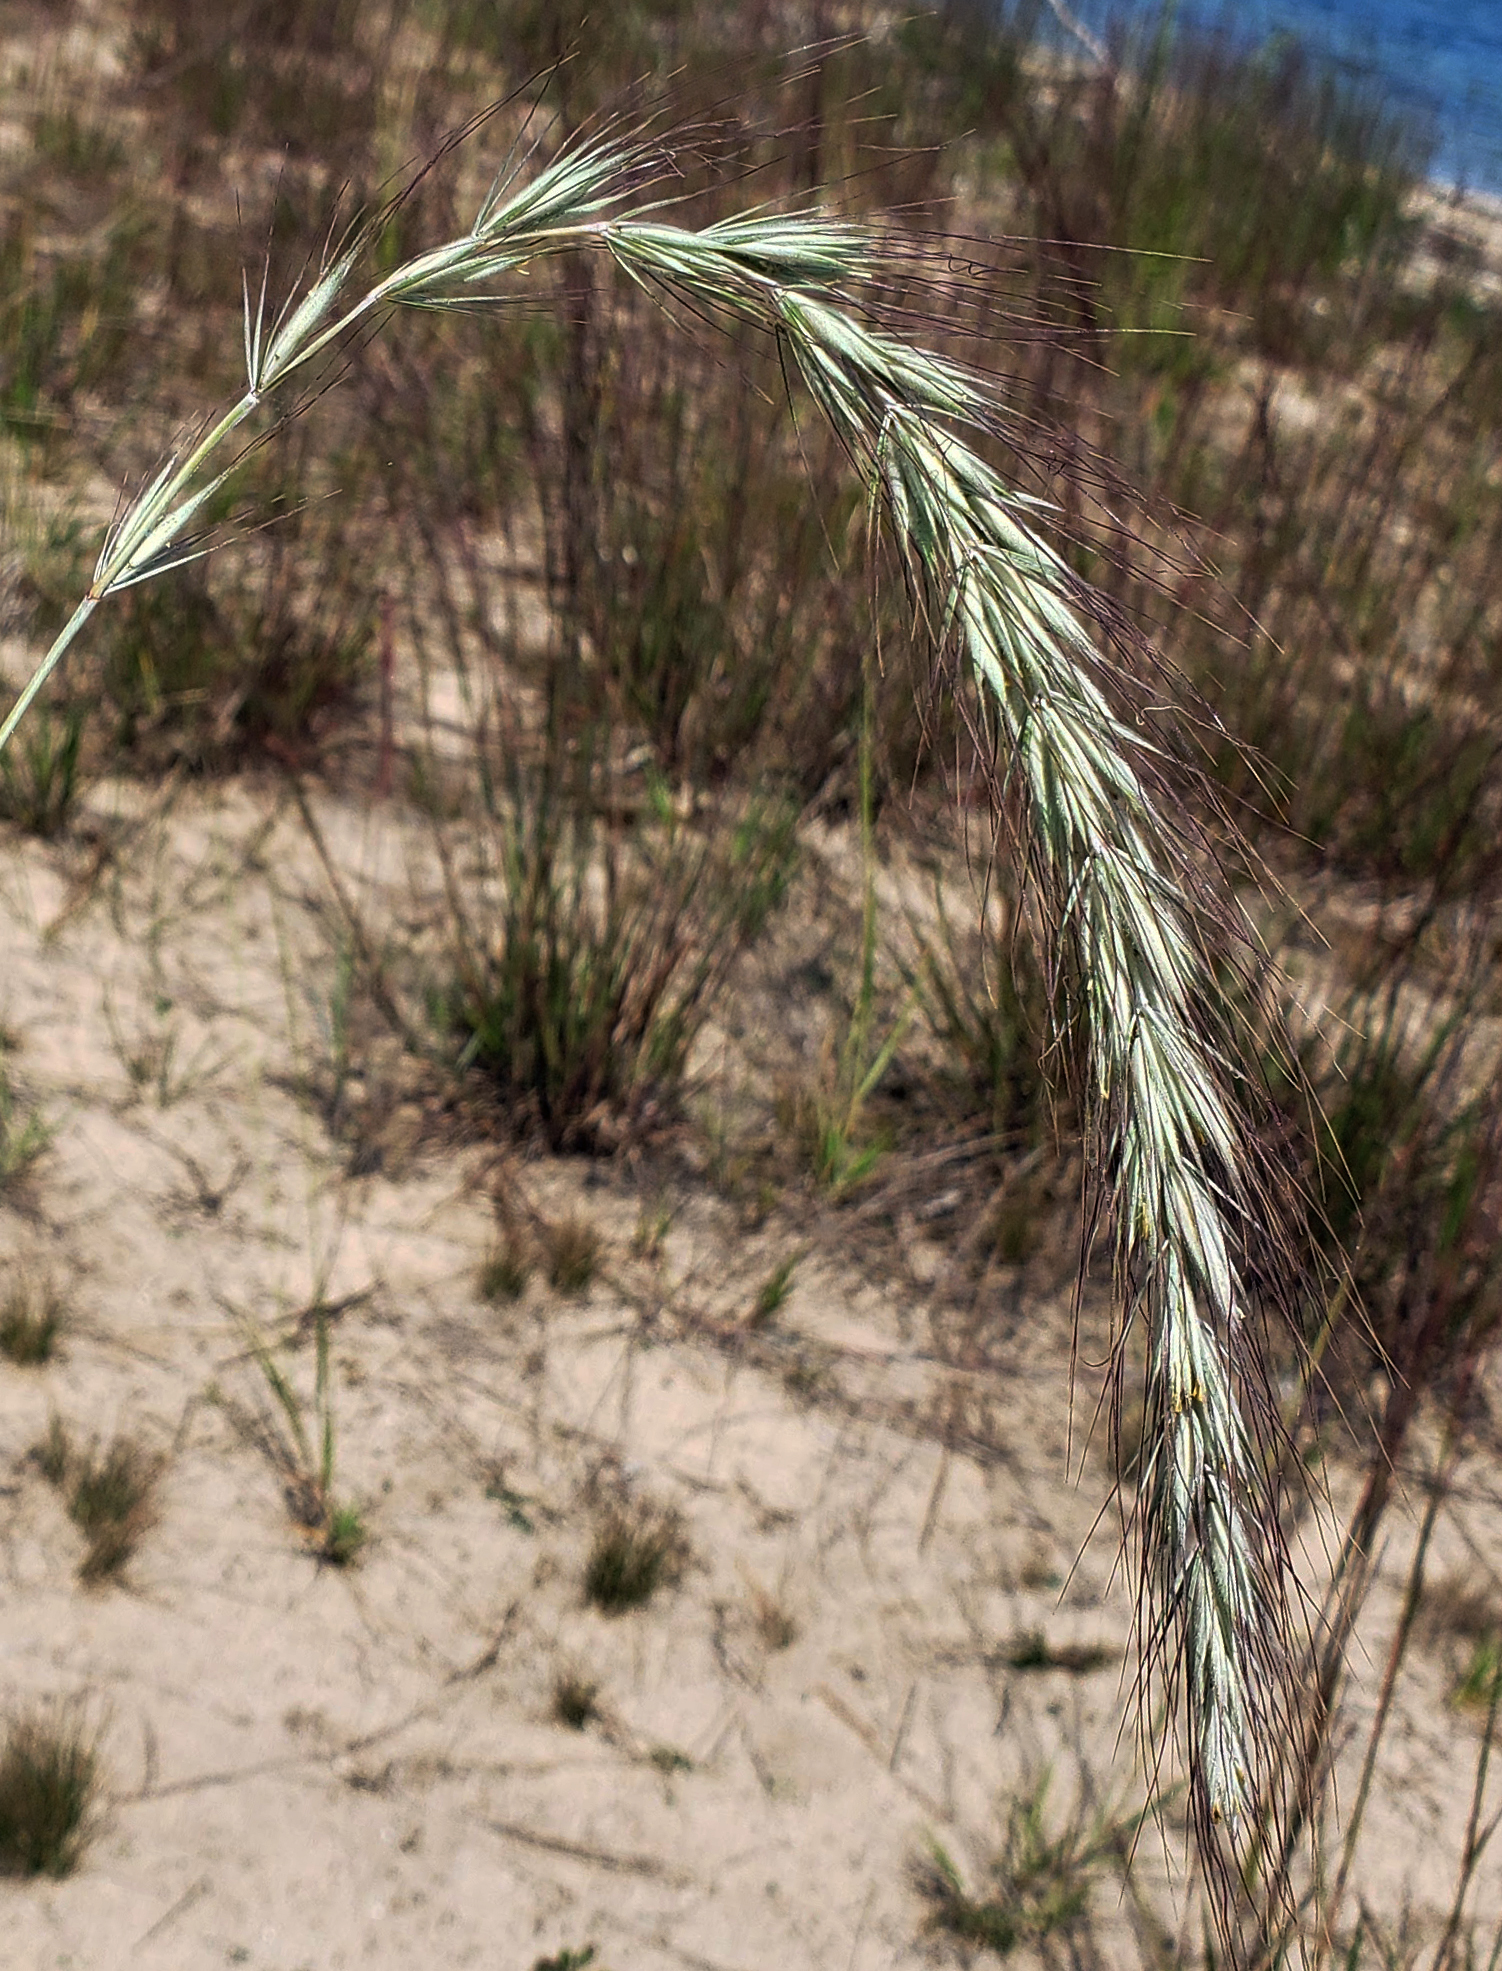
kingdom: Plantae
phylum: Tracheophyta
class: Liliopsida
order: Poales
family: Poaceae
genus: Elymus
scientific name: Elymus canadensis
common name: Canada wild rye
